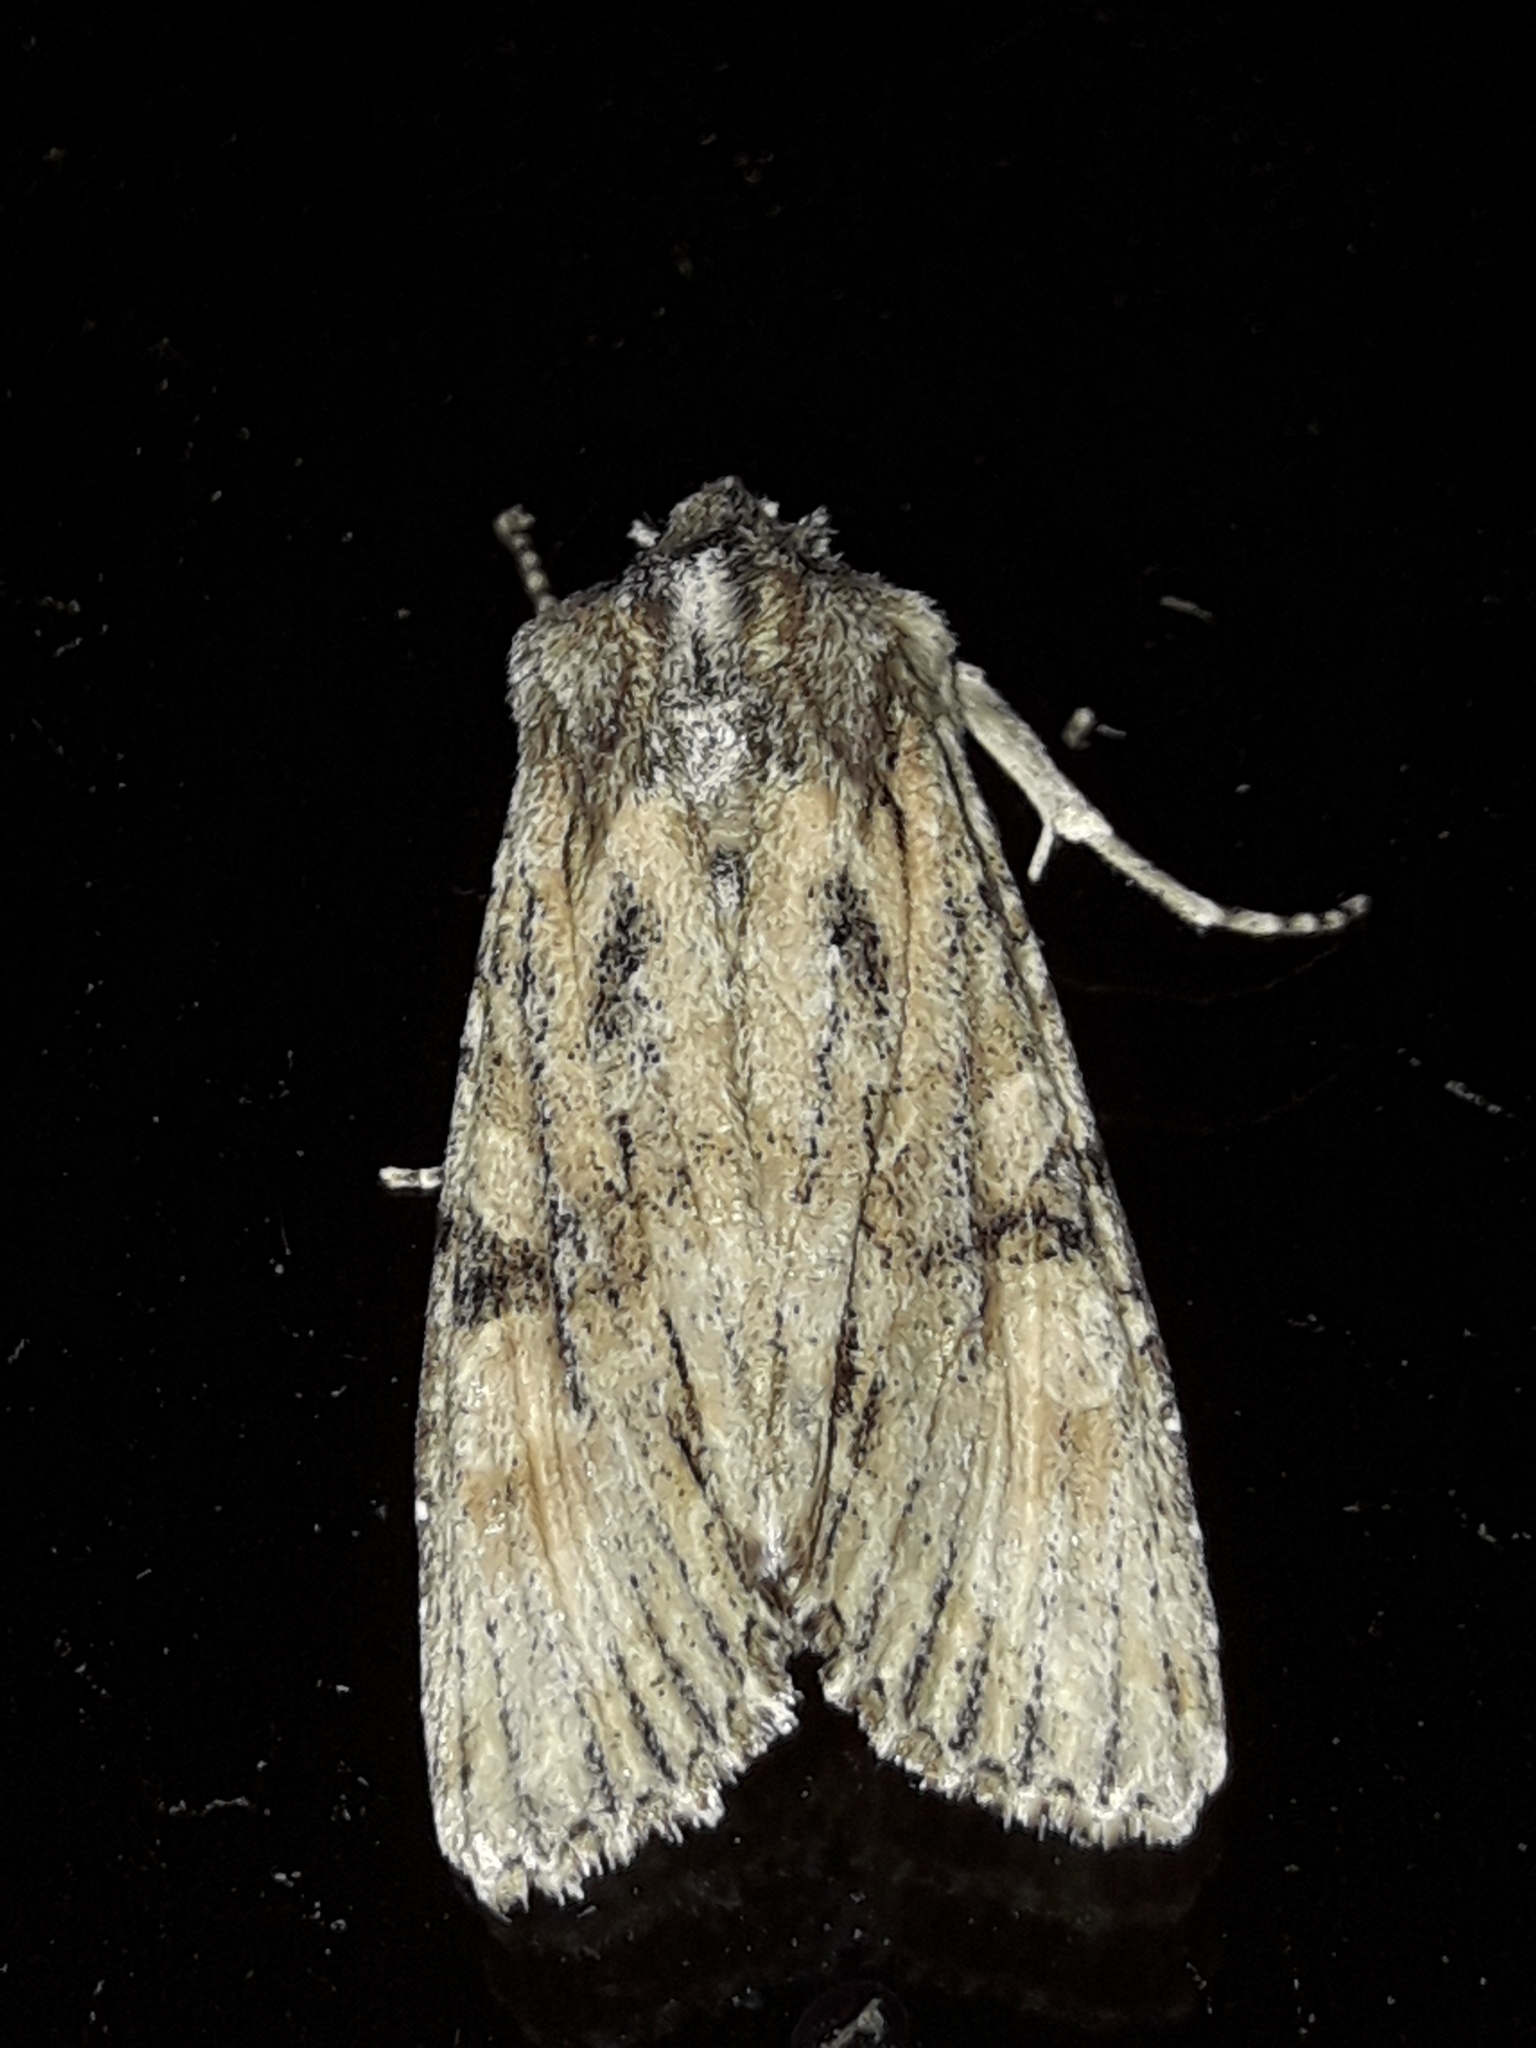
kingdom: Animalia
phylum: Arthropoda
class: Insecta
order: Lepidoptera
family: Noctuidae
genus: Ichneutica
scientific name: Ichneutica mutans
